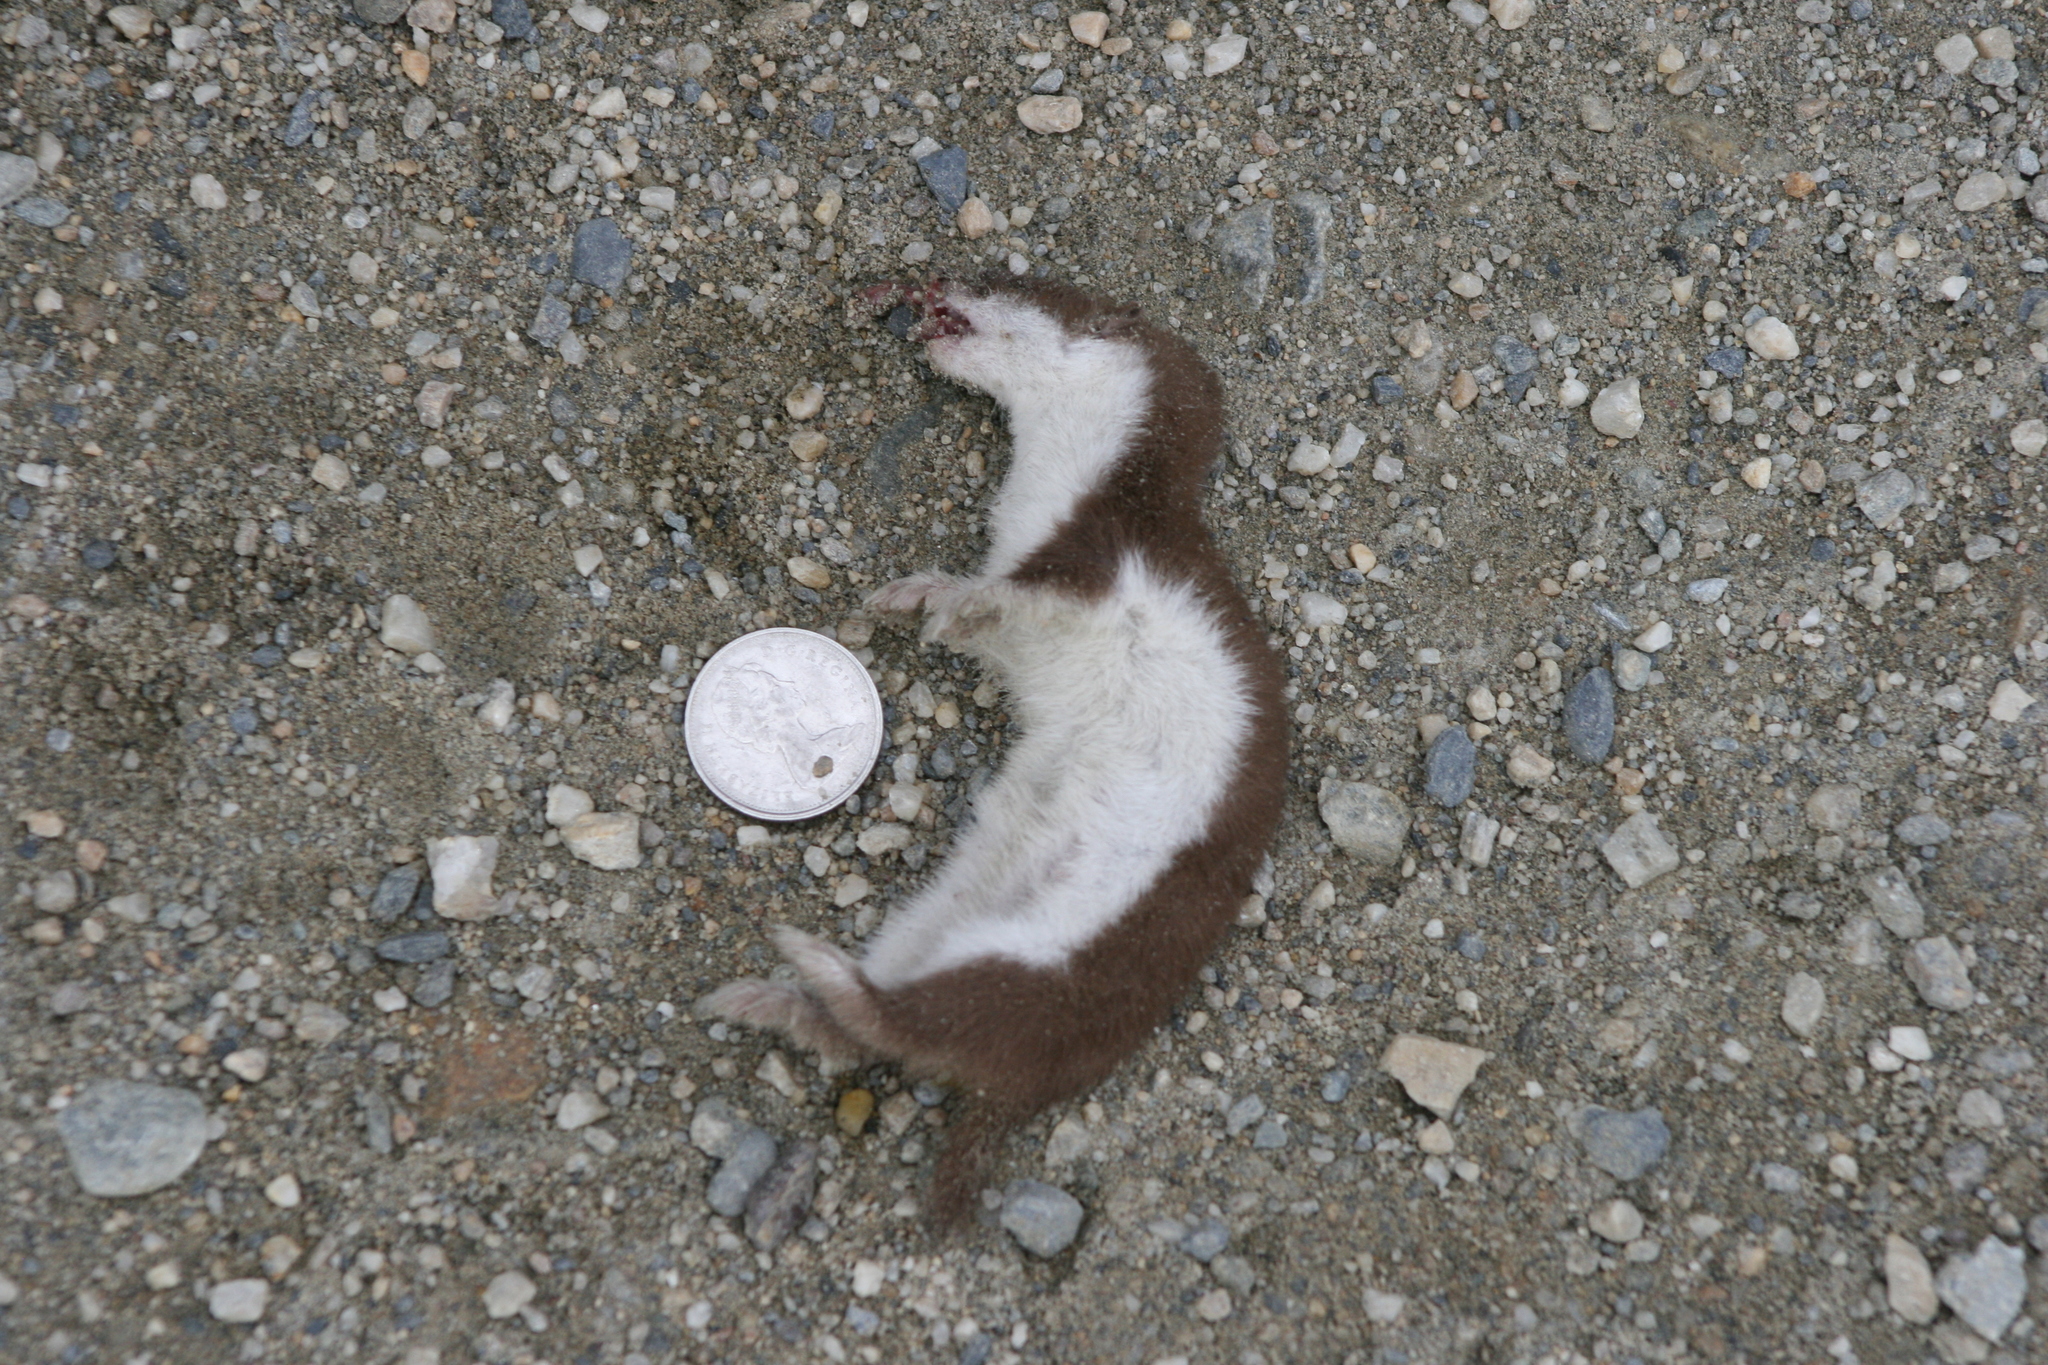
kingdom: Animalia
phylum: Chordata
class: Mammalia
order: Carnivora
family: Mustelidae
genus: Mustela
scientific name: Mustela nivalis
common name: Least weasel
